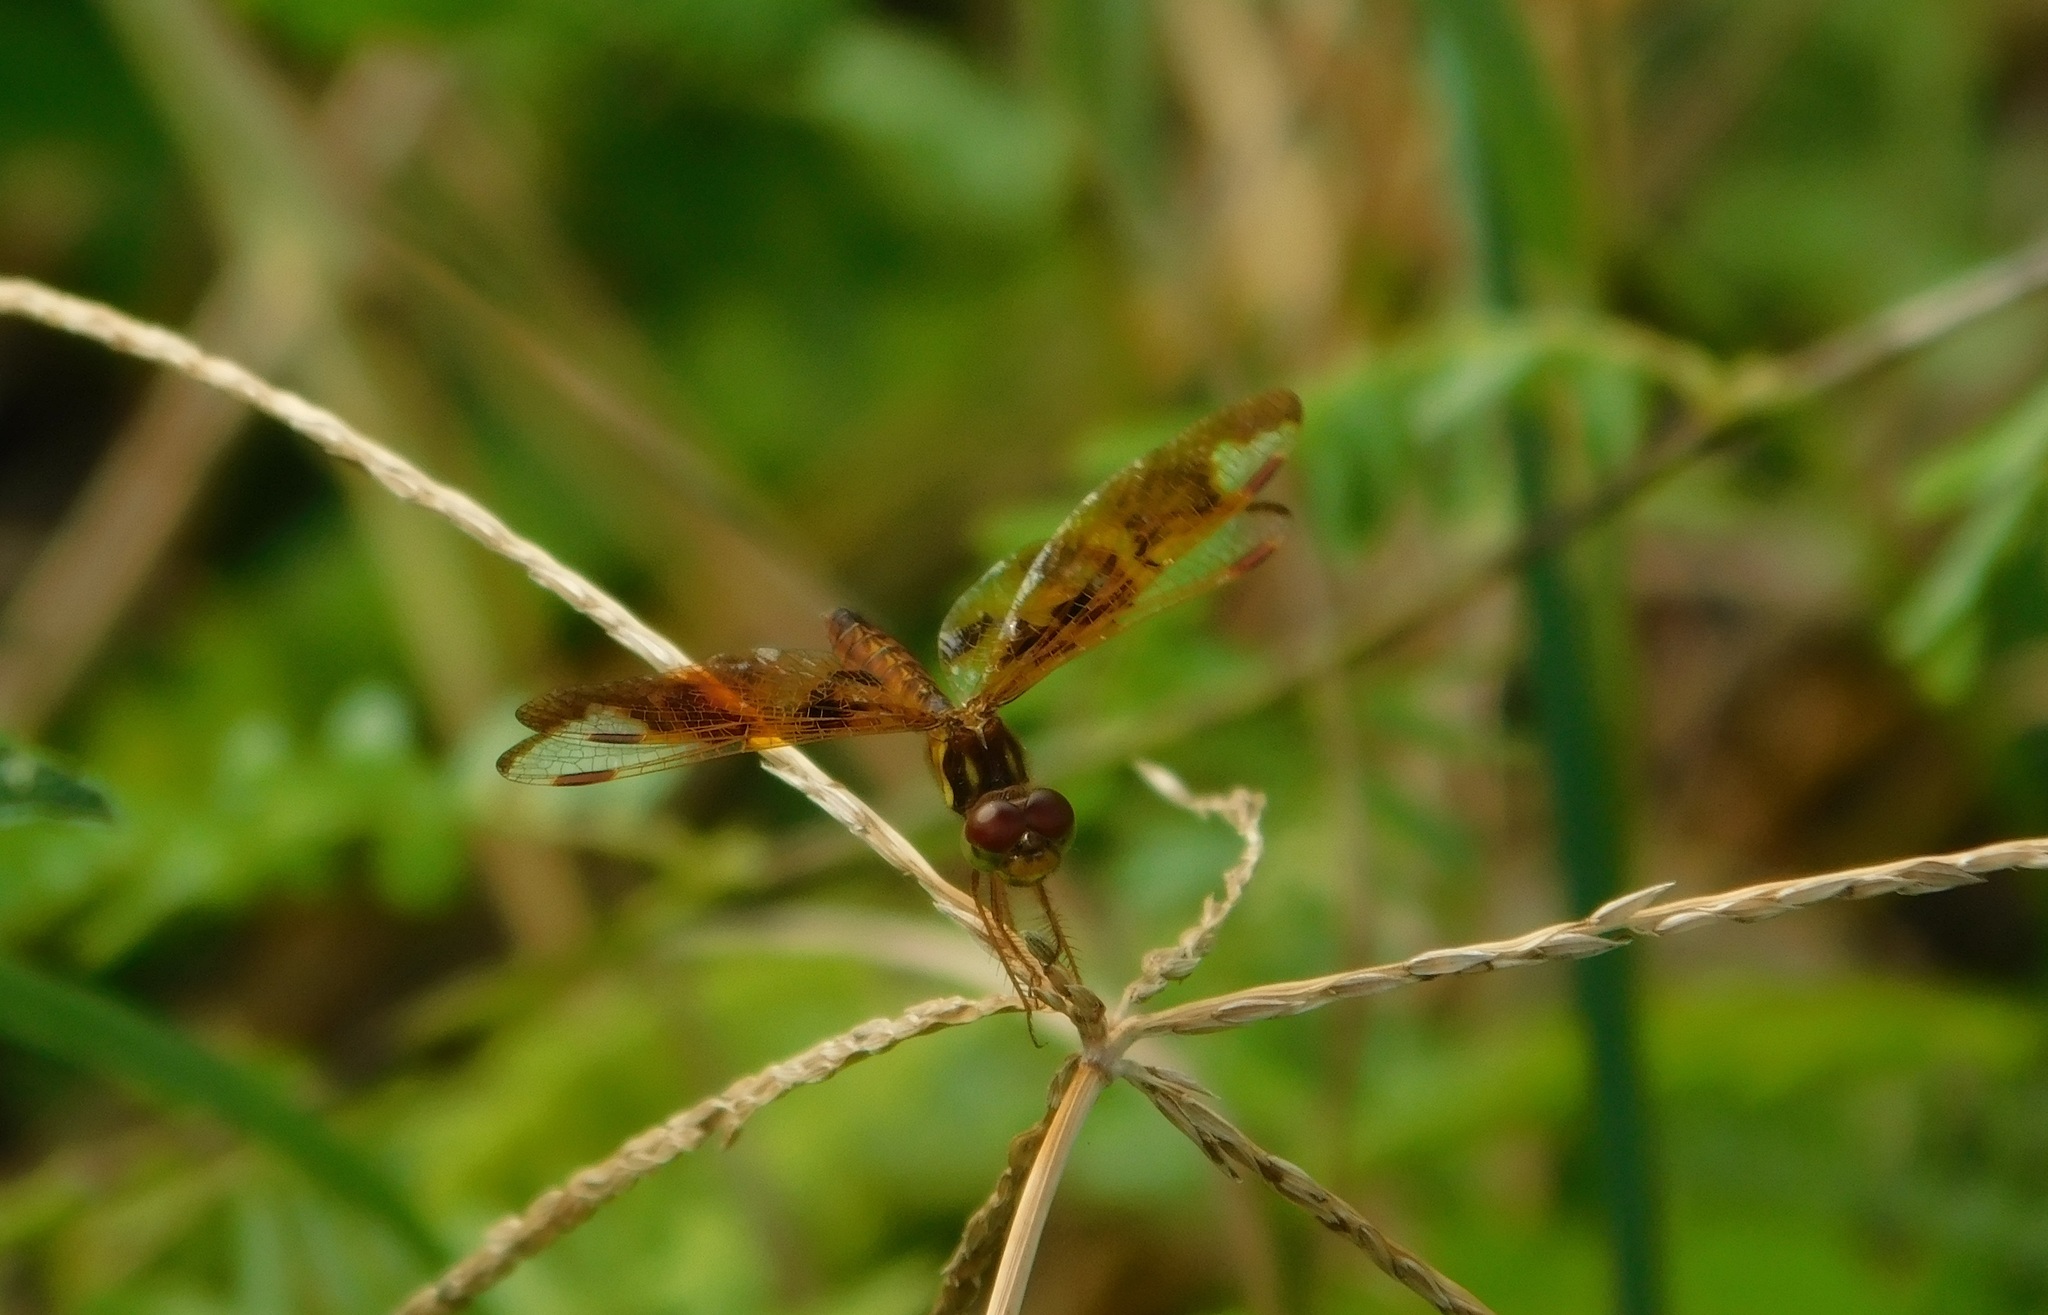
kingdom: Animalia
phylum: Arthropoda
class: Insecta
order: Odonata
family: Libellulidae
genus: Perithemis
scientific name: Perithemis tenera
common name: Eastern amberwing
